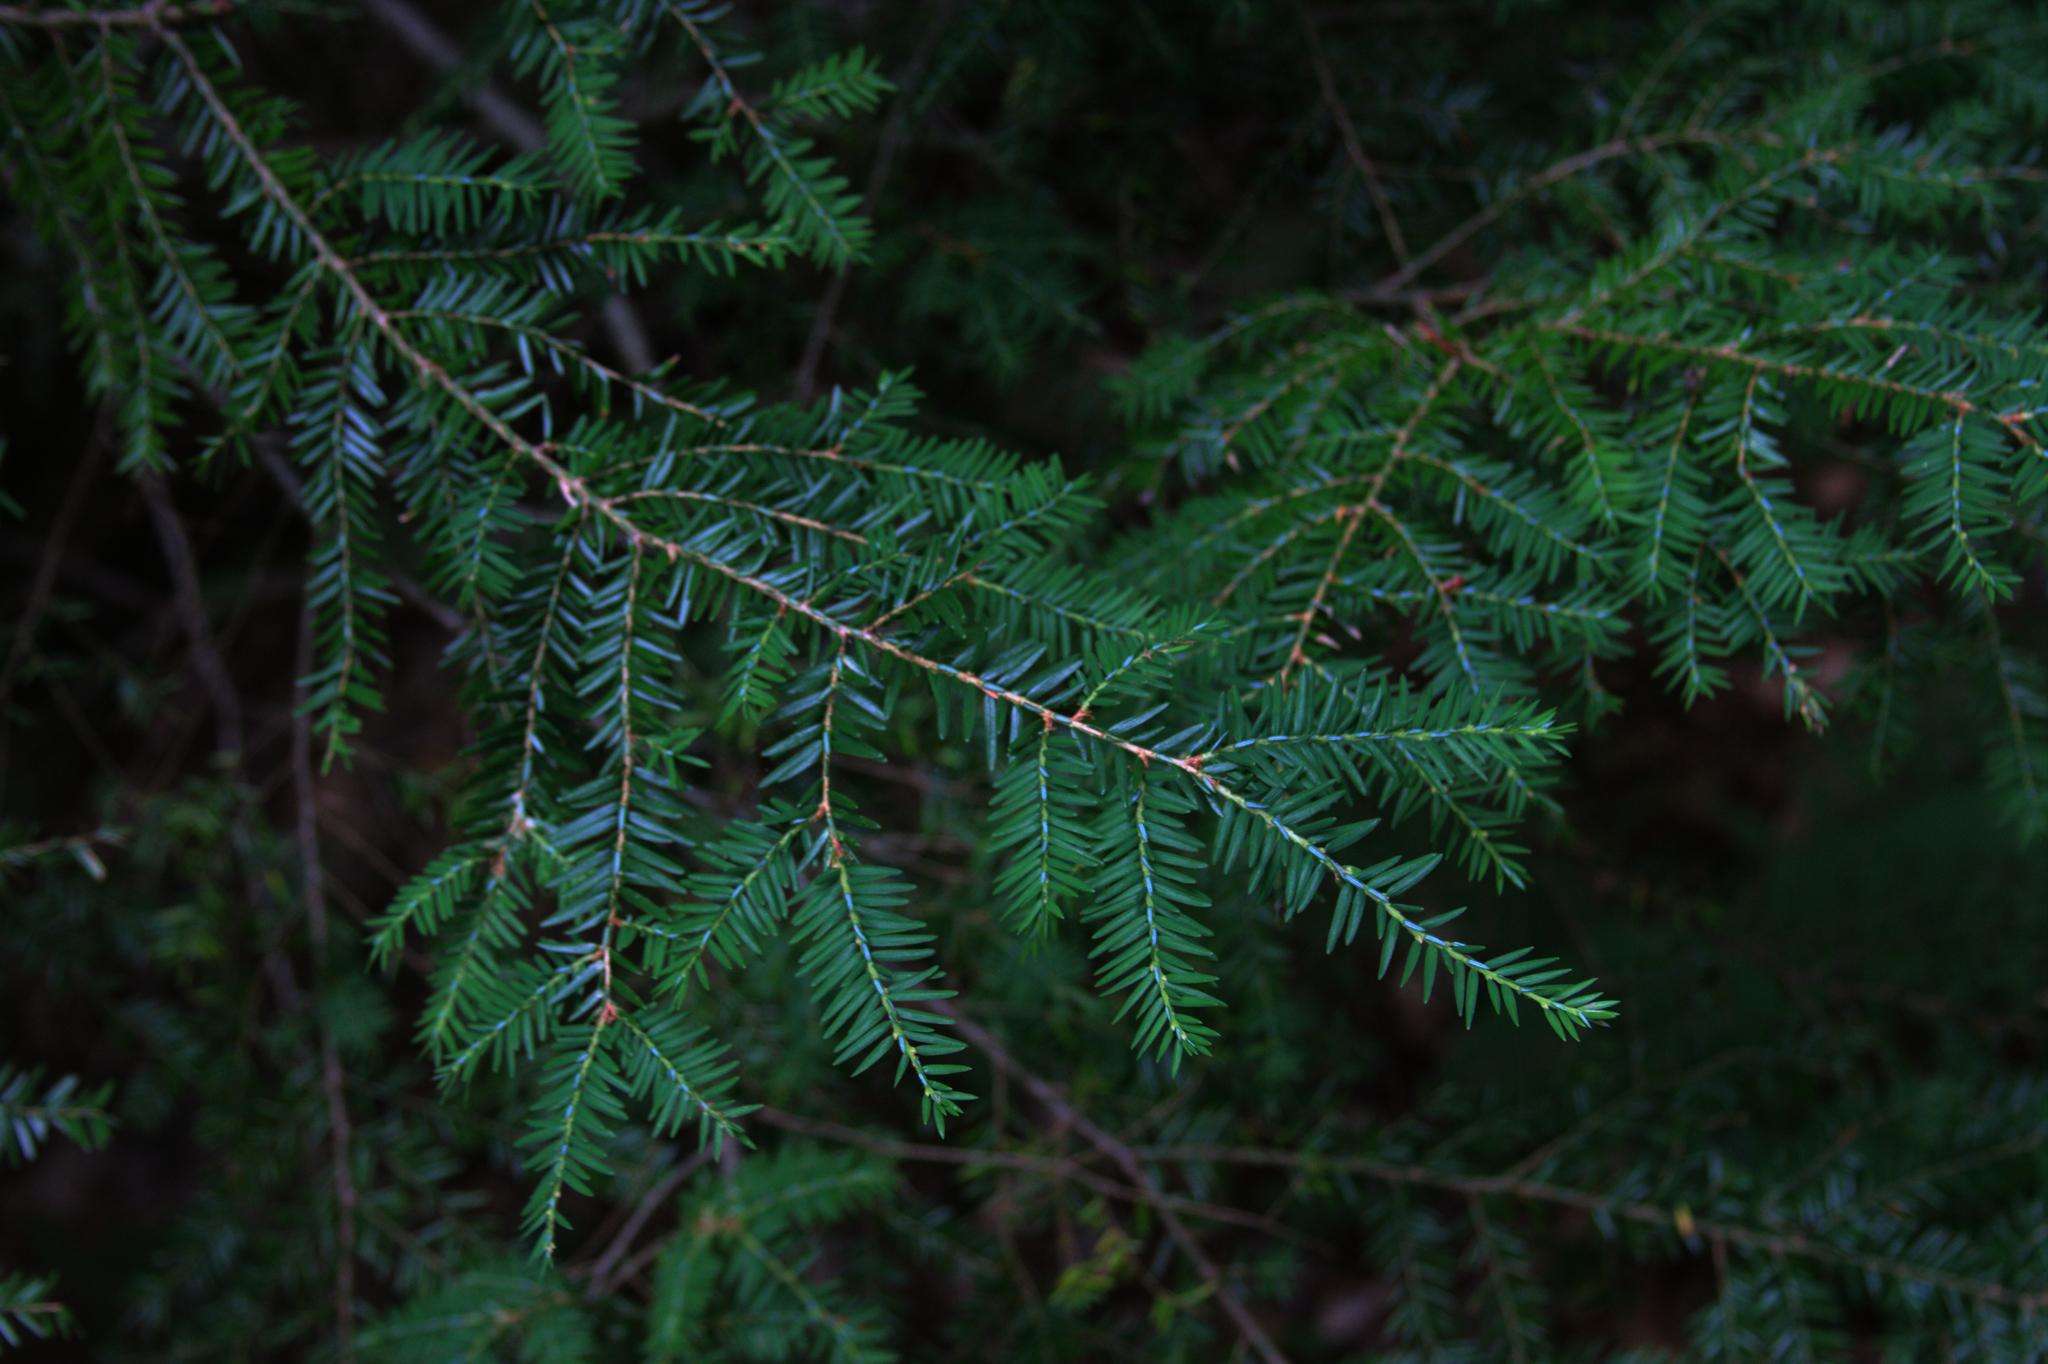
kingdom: Plantae
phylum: Tracheophyta
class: Pinopsida
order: Pinales
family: Pinaceae
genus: Tsuga
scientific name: Tsuga canadensis
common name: Eastern hemlock
